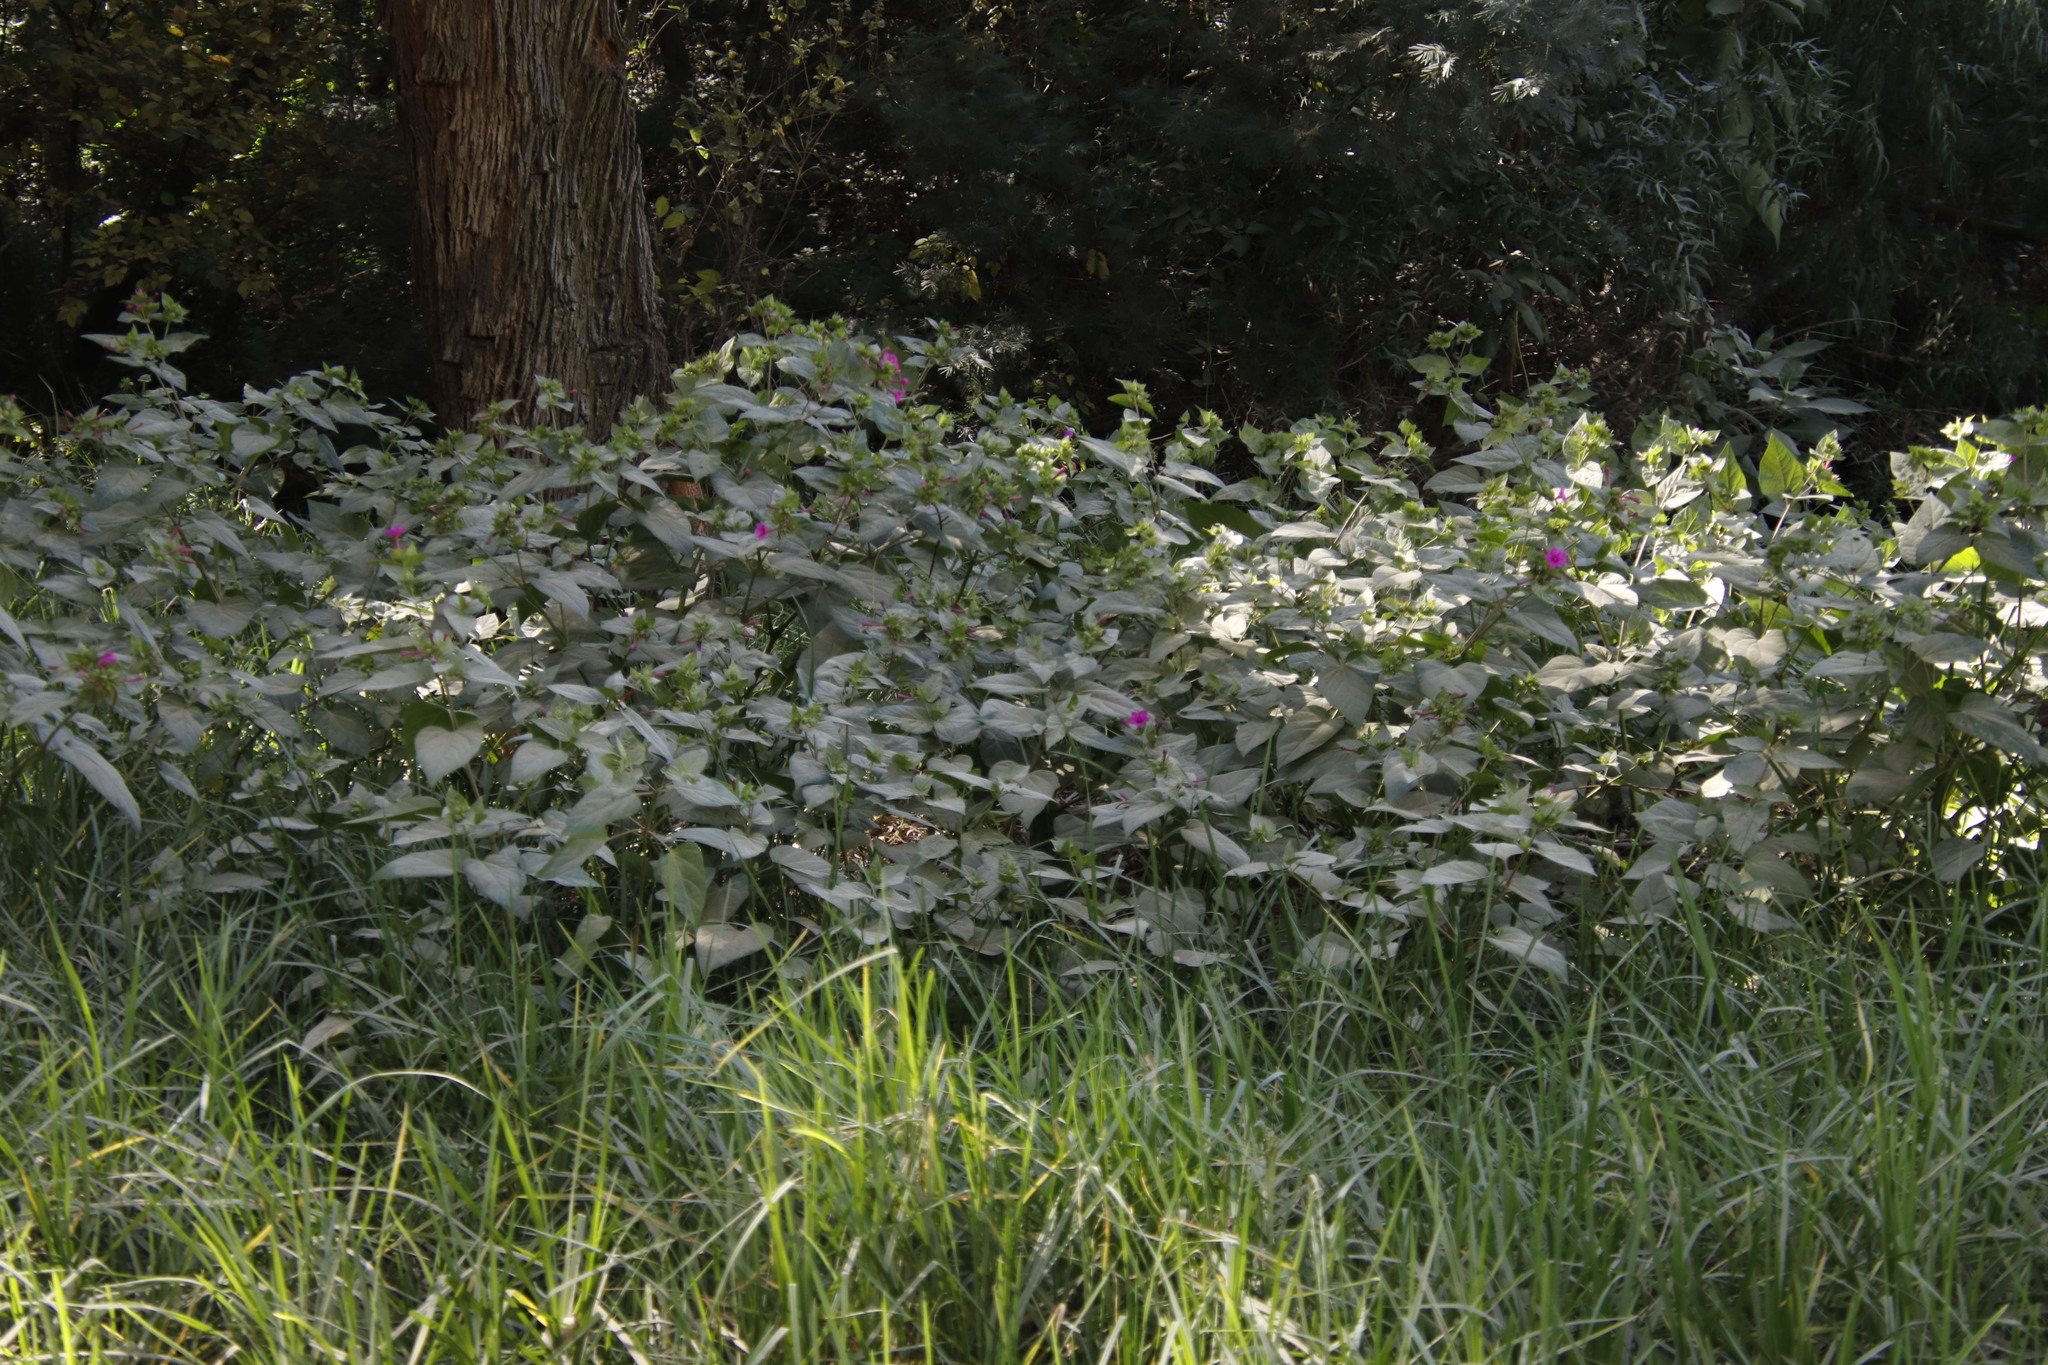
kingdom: Plantae
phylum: Tracheophyta
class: Magnoliopsida
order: Caryophyllales
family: Nyctaginaceae
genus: Mirabilis
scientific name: Mirabilis jalapa
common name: Marvel-of-peru
